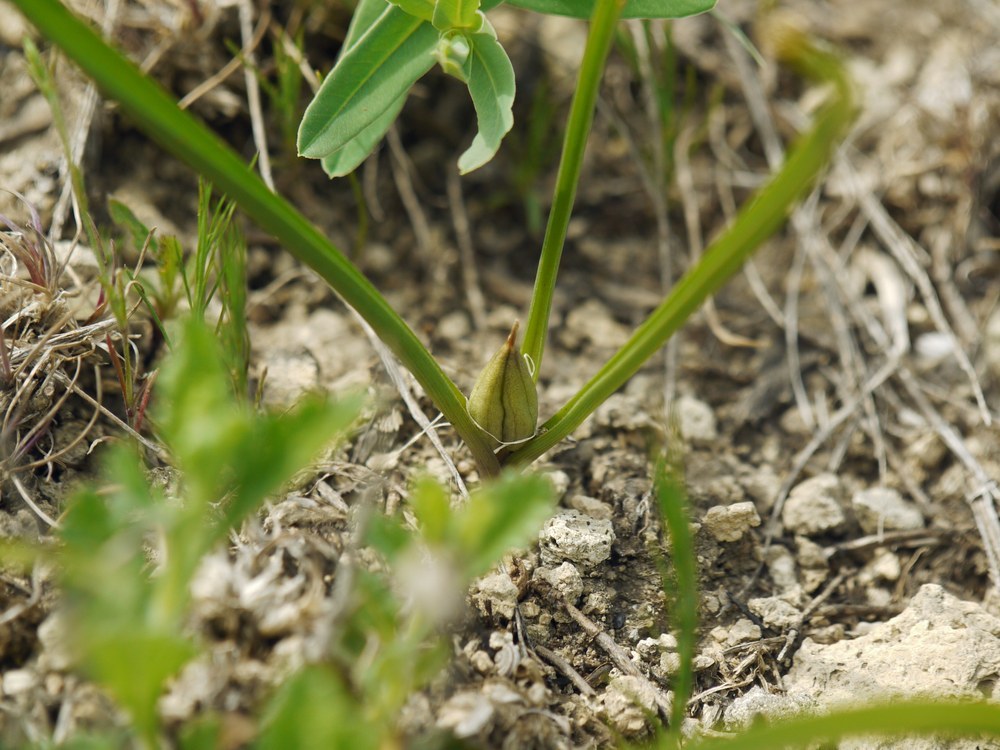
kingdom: Plantae
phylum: Tracheophyta
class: Liliopsida
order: Liliales
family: Colchicaceae
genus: Colchicum
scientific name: Colchicum bulbocodium
